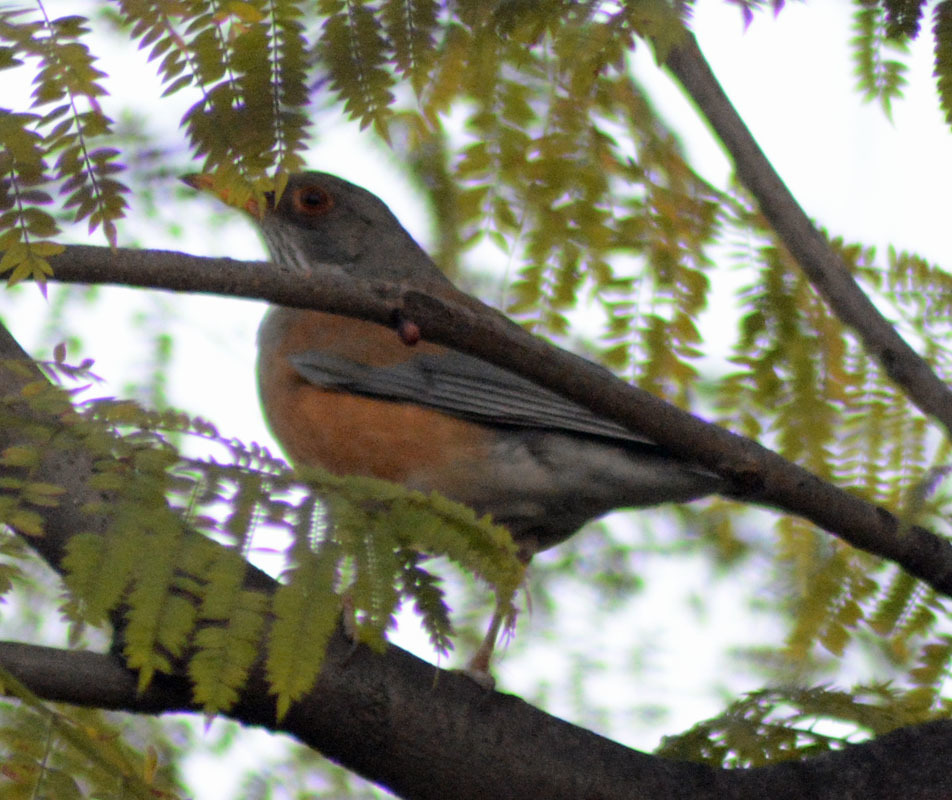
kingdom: Animalia
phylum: Chordata
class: Aves
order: Passeriformes
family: Turdidae
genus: Turdus
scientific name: Turdus rufopalliatus
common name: Rufous-backed robin
